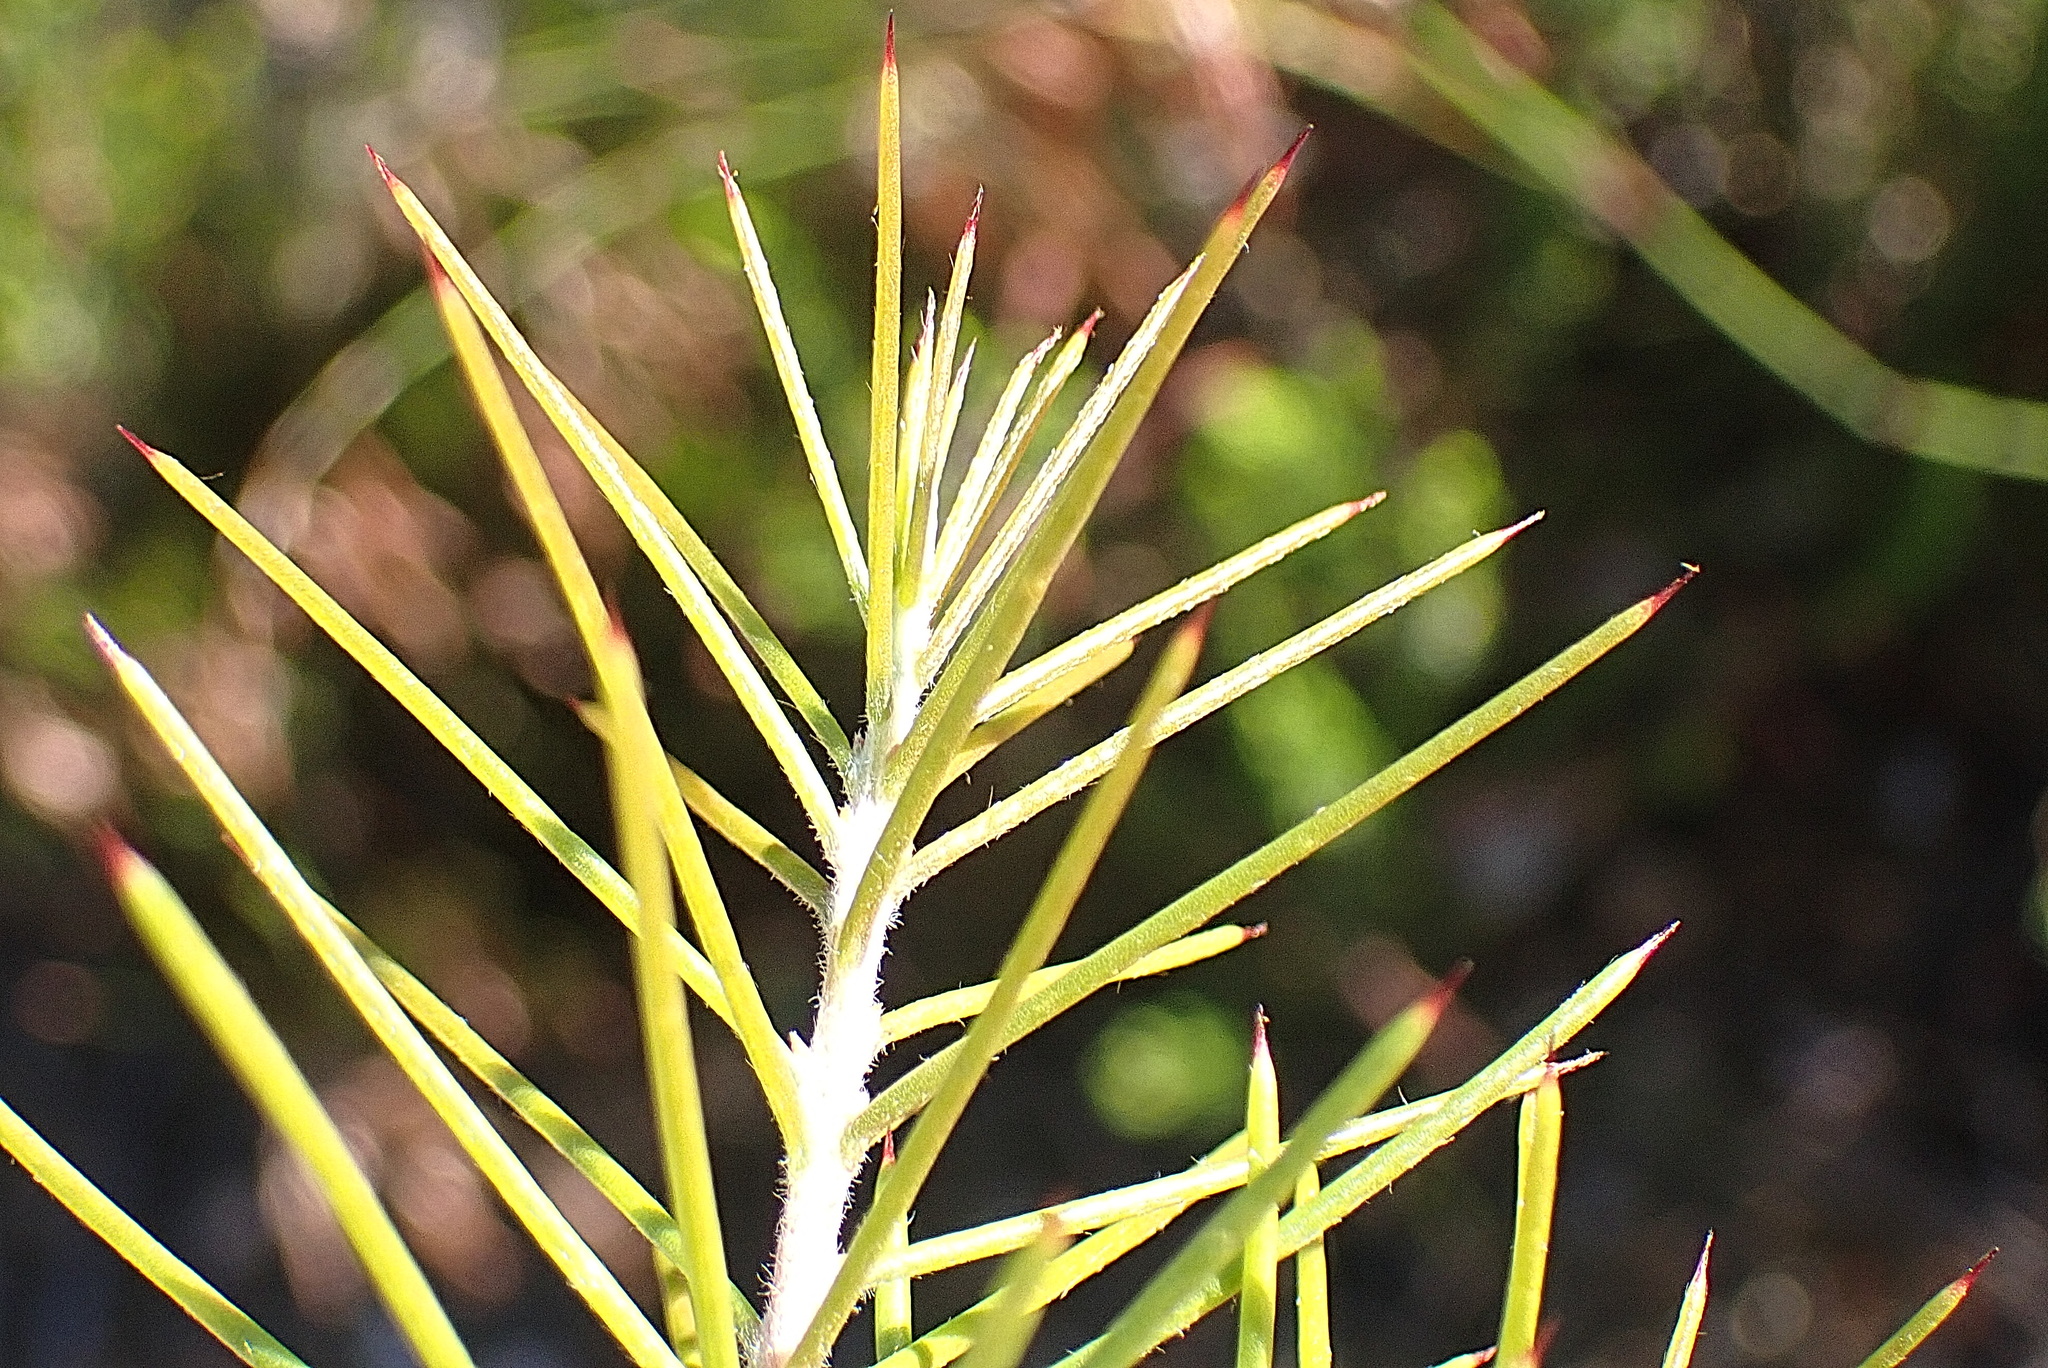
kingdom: Plantae
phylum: Tracheophyta
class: Magnoliopsida
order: Proteales
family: Proteaceae
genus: Hakea
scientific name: Hakea sericea
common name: Needle bush
